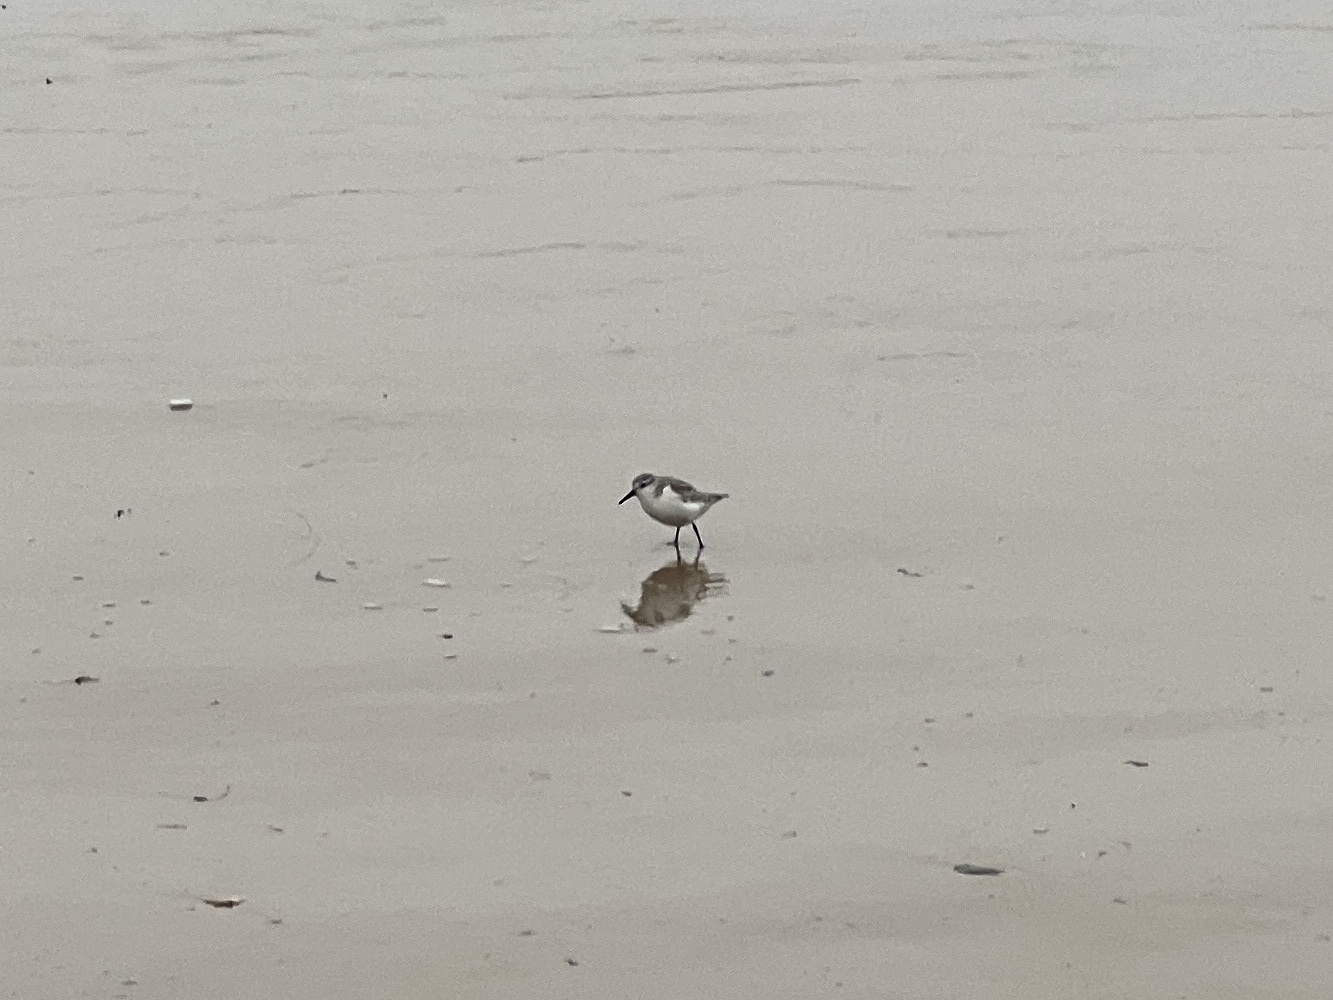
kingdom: Animalia
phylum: Chordata
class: Aves
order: Charadriiformes
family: Scolopacidae
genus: Calidris
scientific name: Calidris alba
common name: Sanderling
